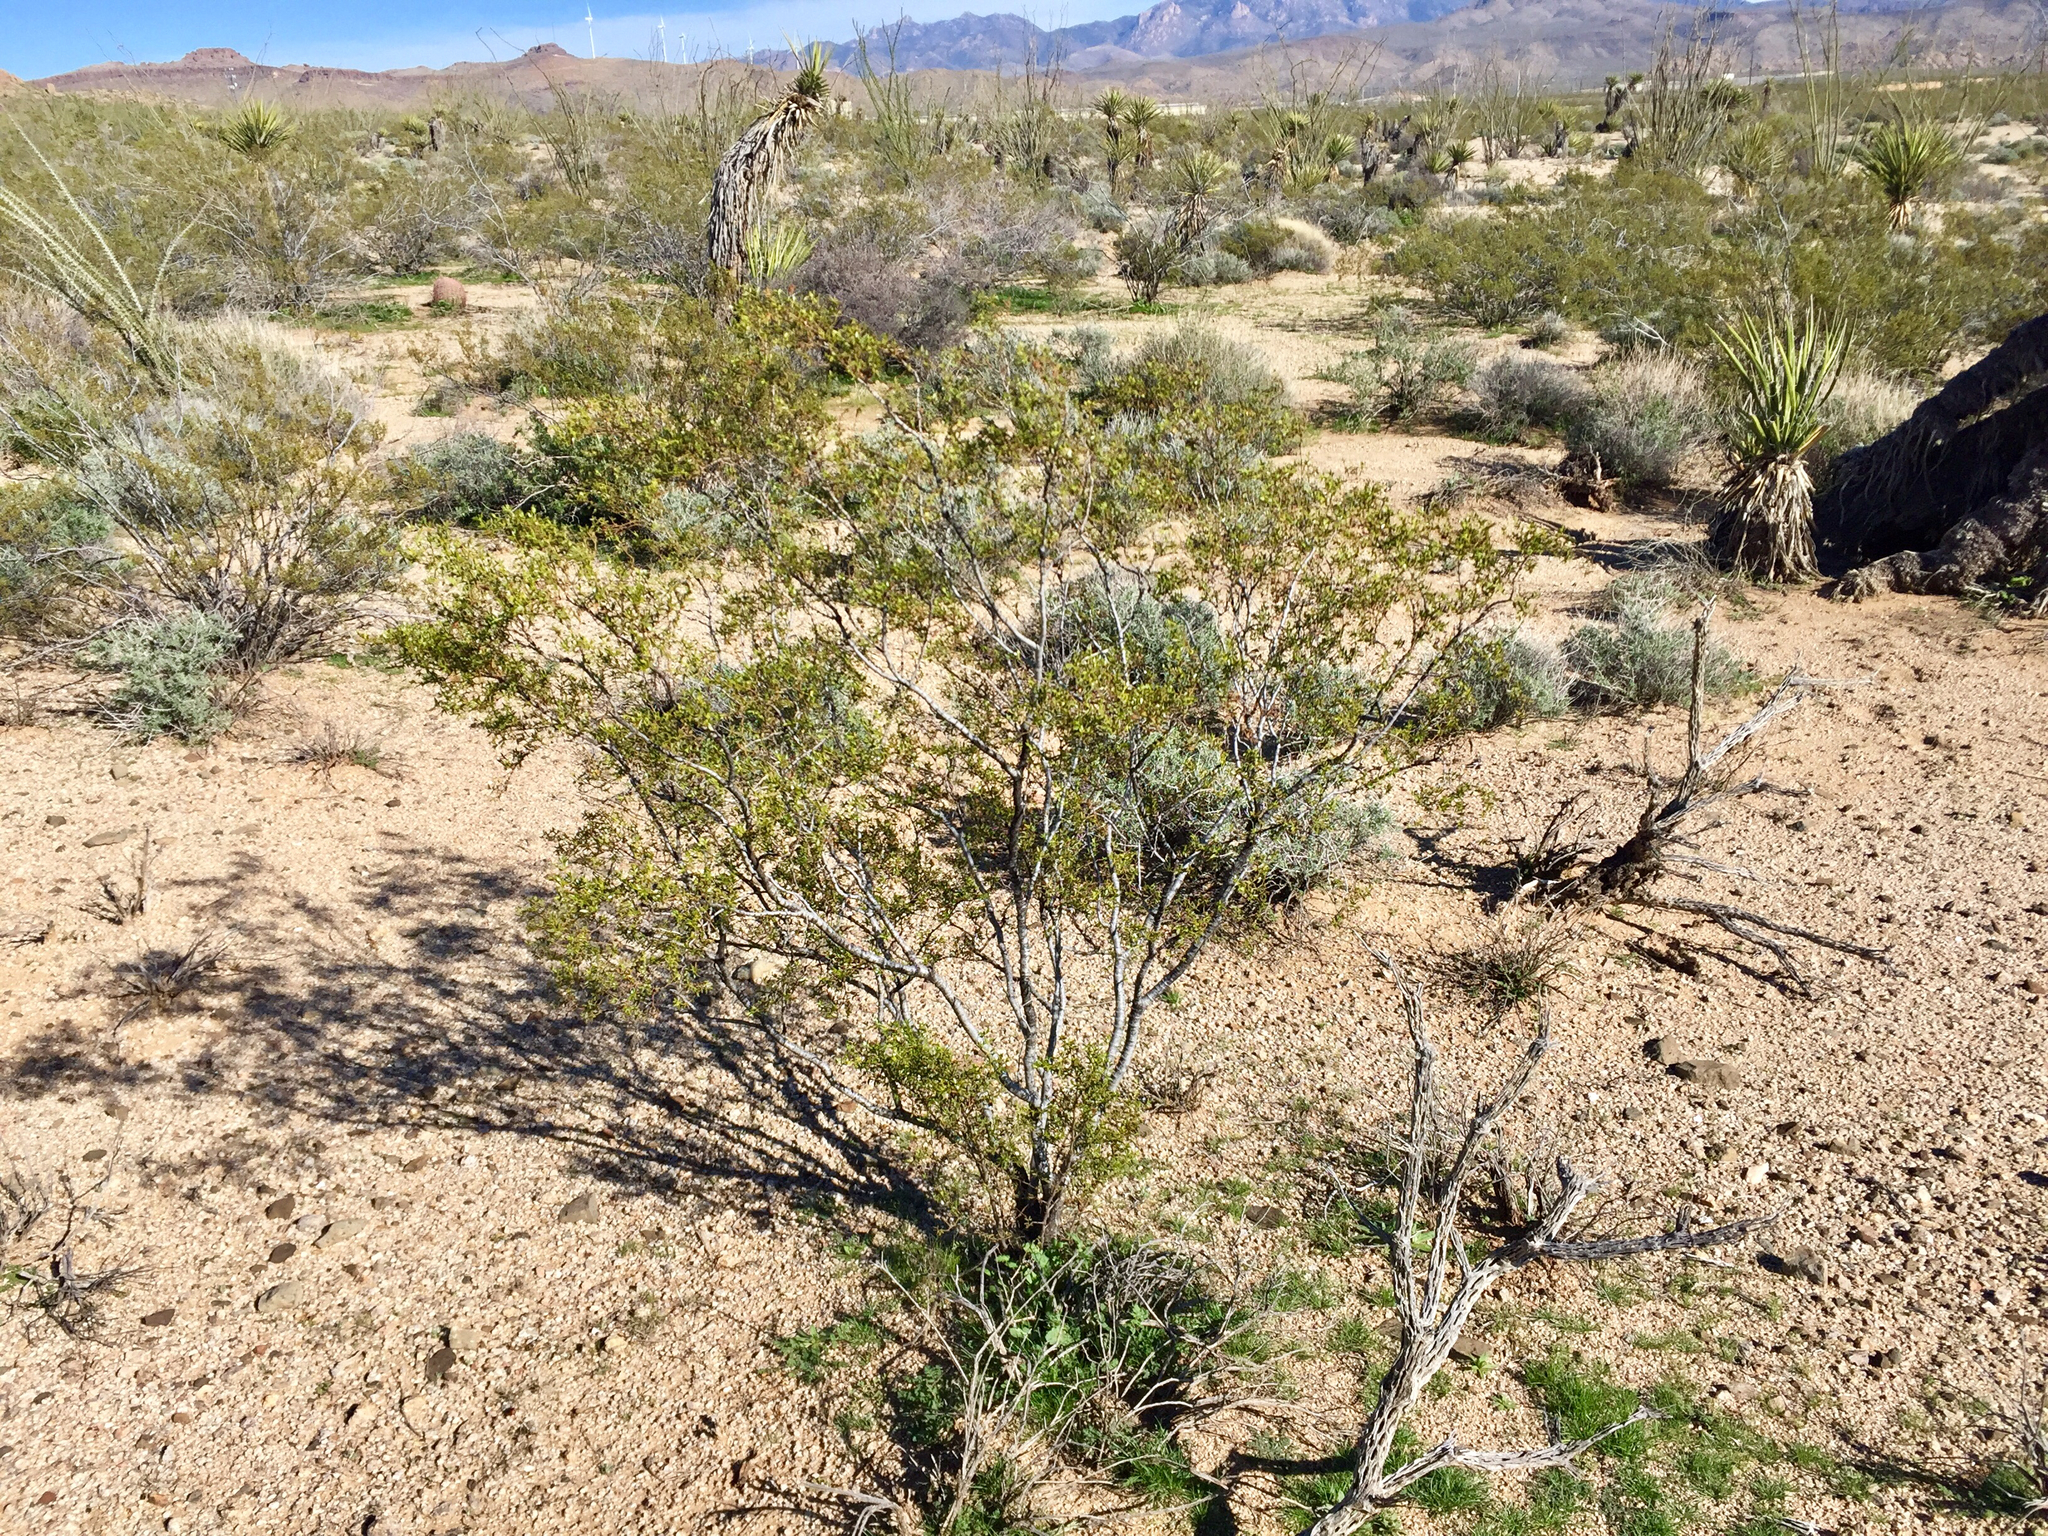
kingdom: Plantae
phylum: Tracheophyta
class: Magnoliopsida
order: Zygophyllales
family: Zygophyllaceae
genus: Larrea
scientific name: Larrea tridentata
